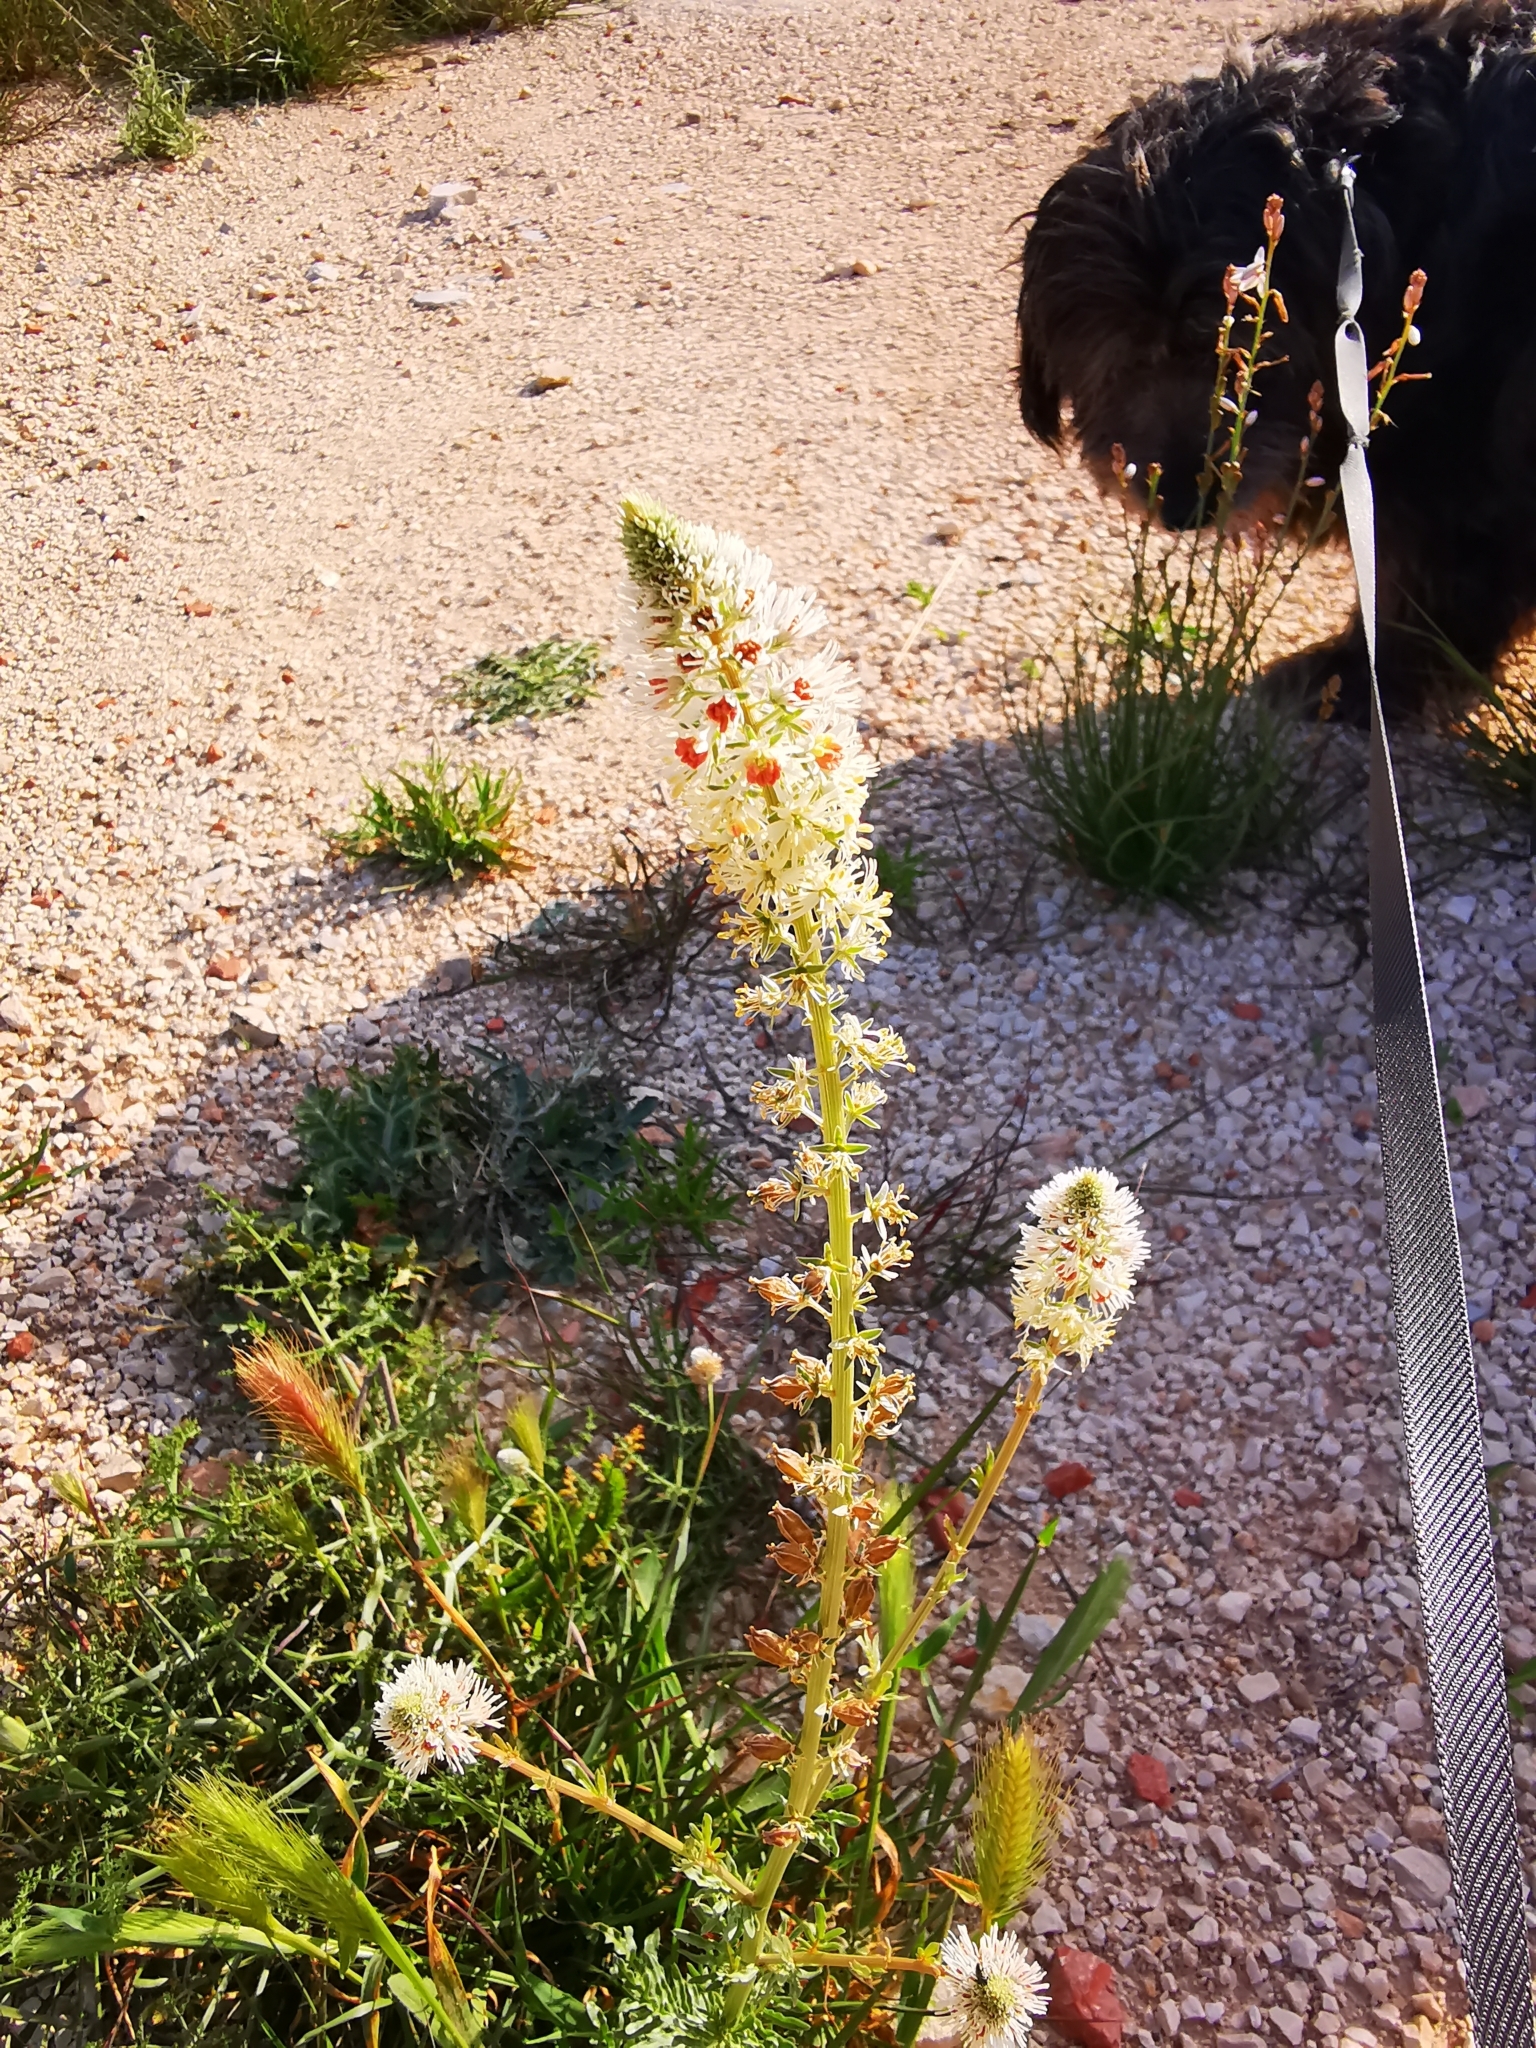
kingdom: Plantae
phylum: Tracheophyta
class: Magnoliopsida
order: Brassicales
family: Resedaceae
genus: Reseda
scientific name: Reseda alba
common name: White mignonette
